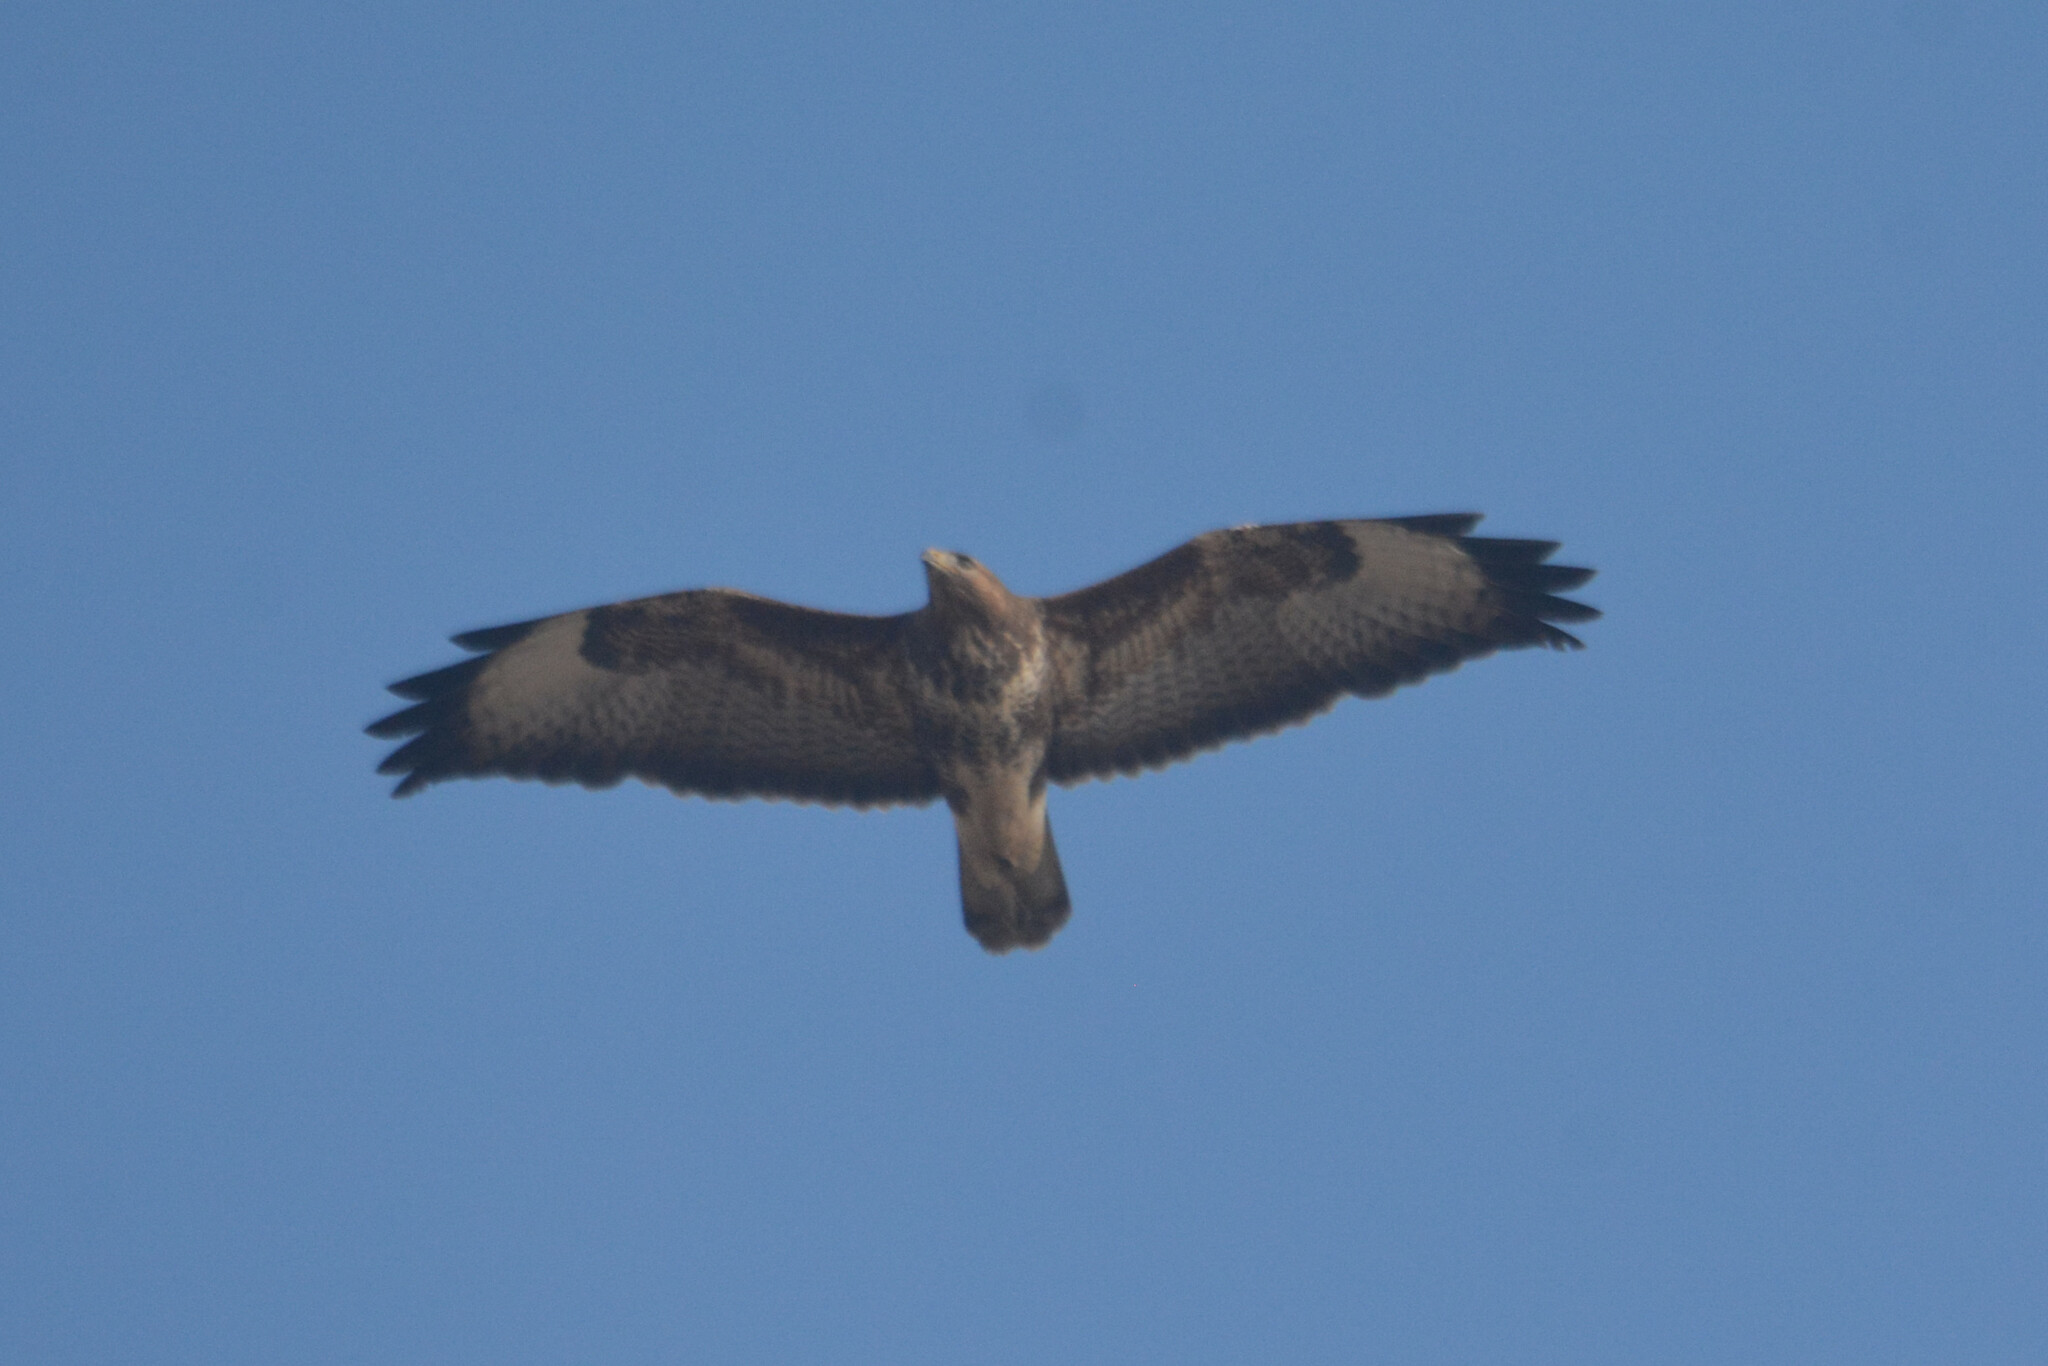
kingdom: Animalia
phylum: Chordata
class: Aves
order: Accipitriformes
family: Accipitridae
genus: Buteo
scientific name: Buteo buteo
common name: Common buzzard
